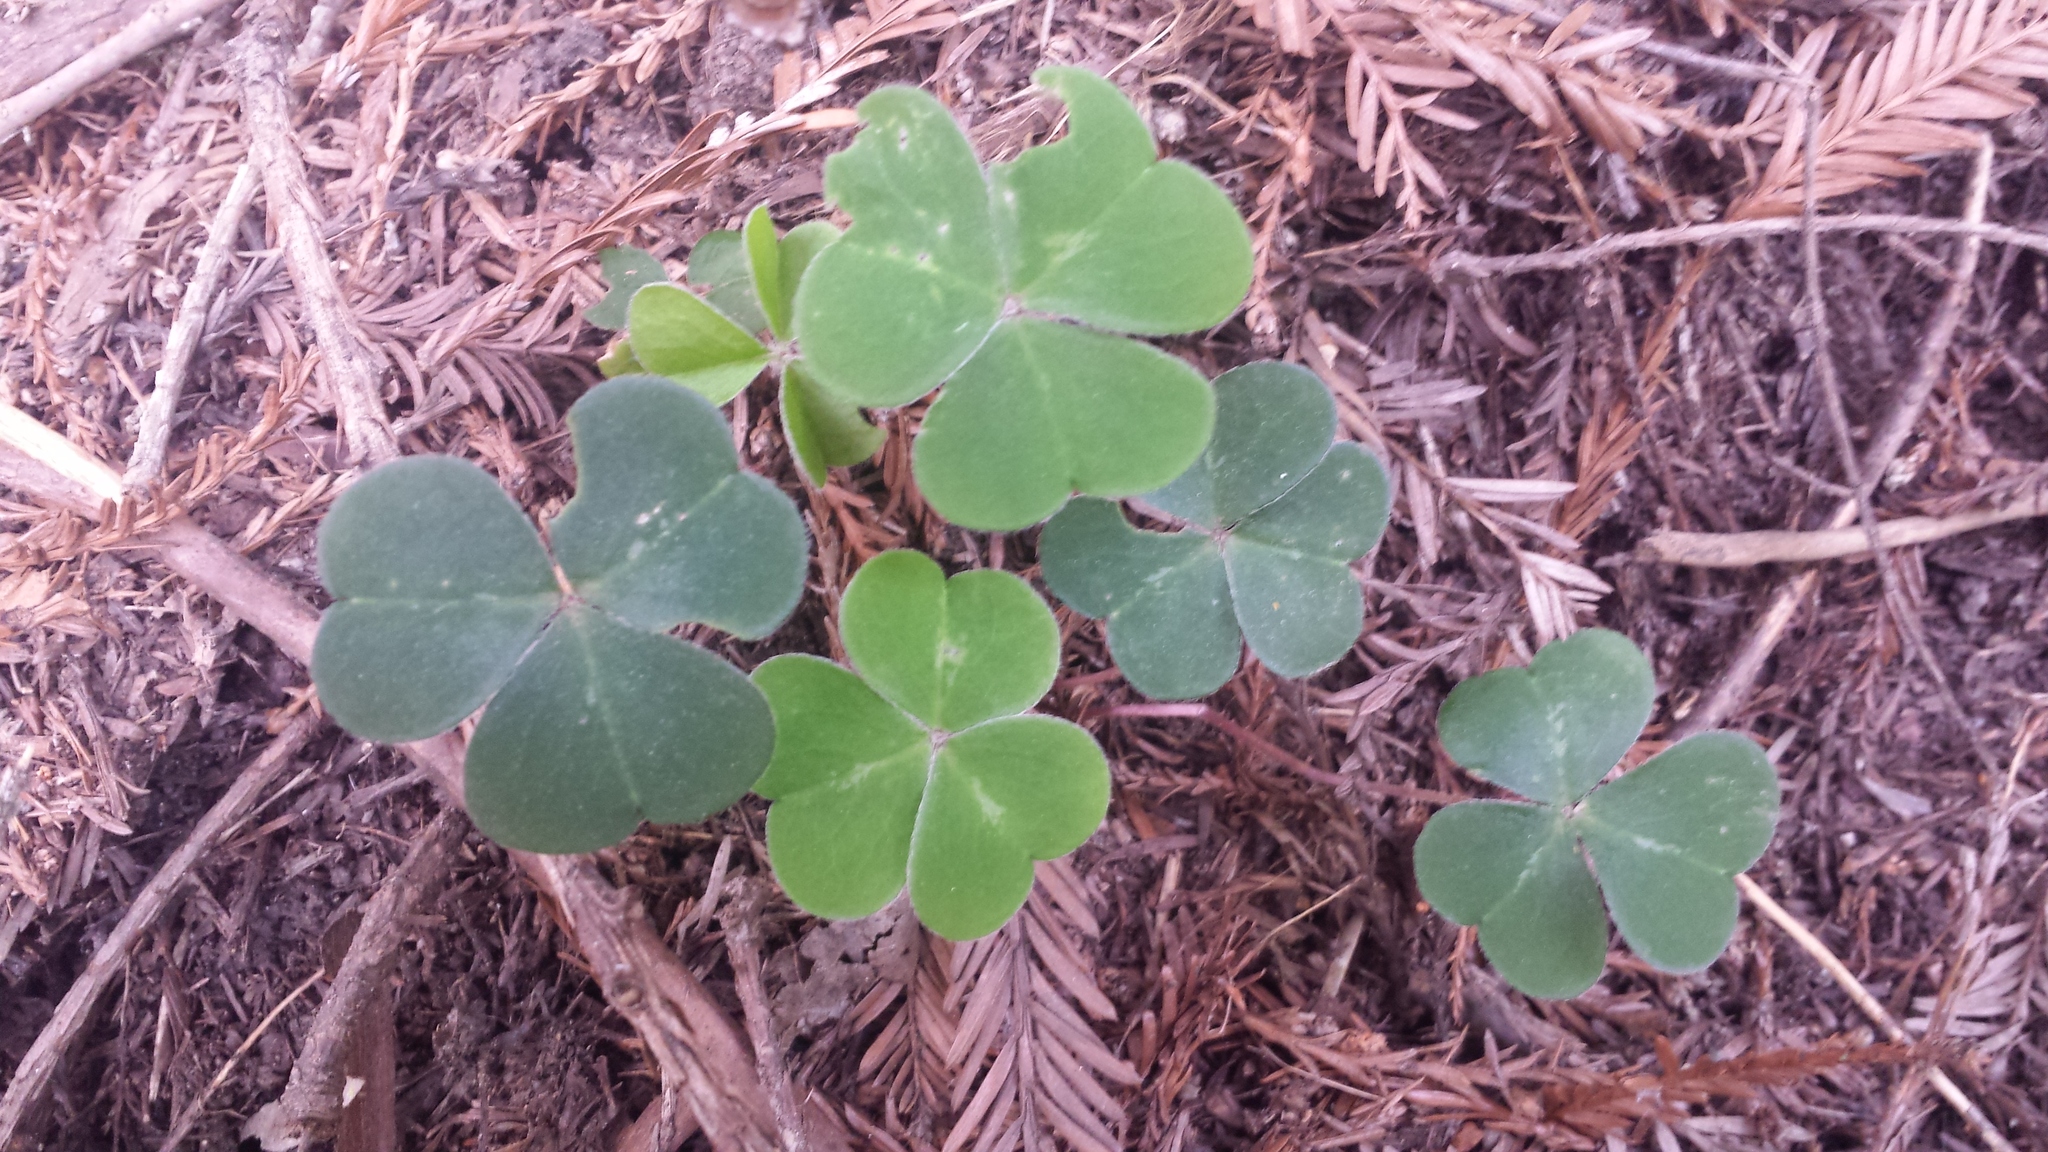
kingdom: Plantae
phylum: Tracheophyta
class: Magnoliopsida
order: Oxalidales
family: Oxalidaceae
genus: Oxalis
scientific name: Oxalis oregana
